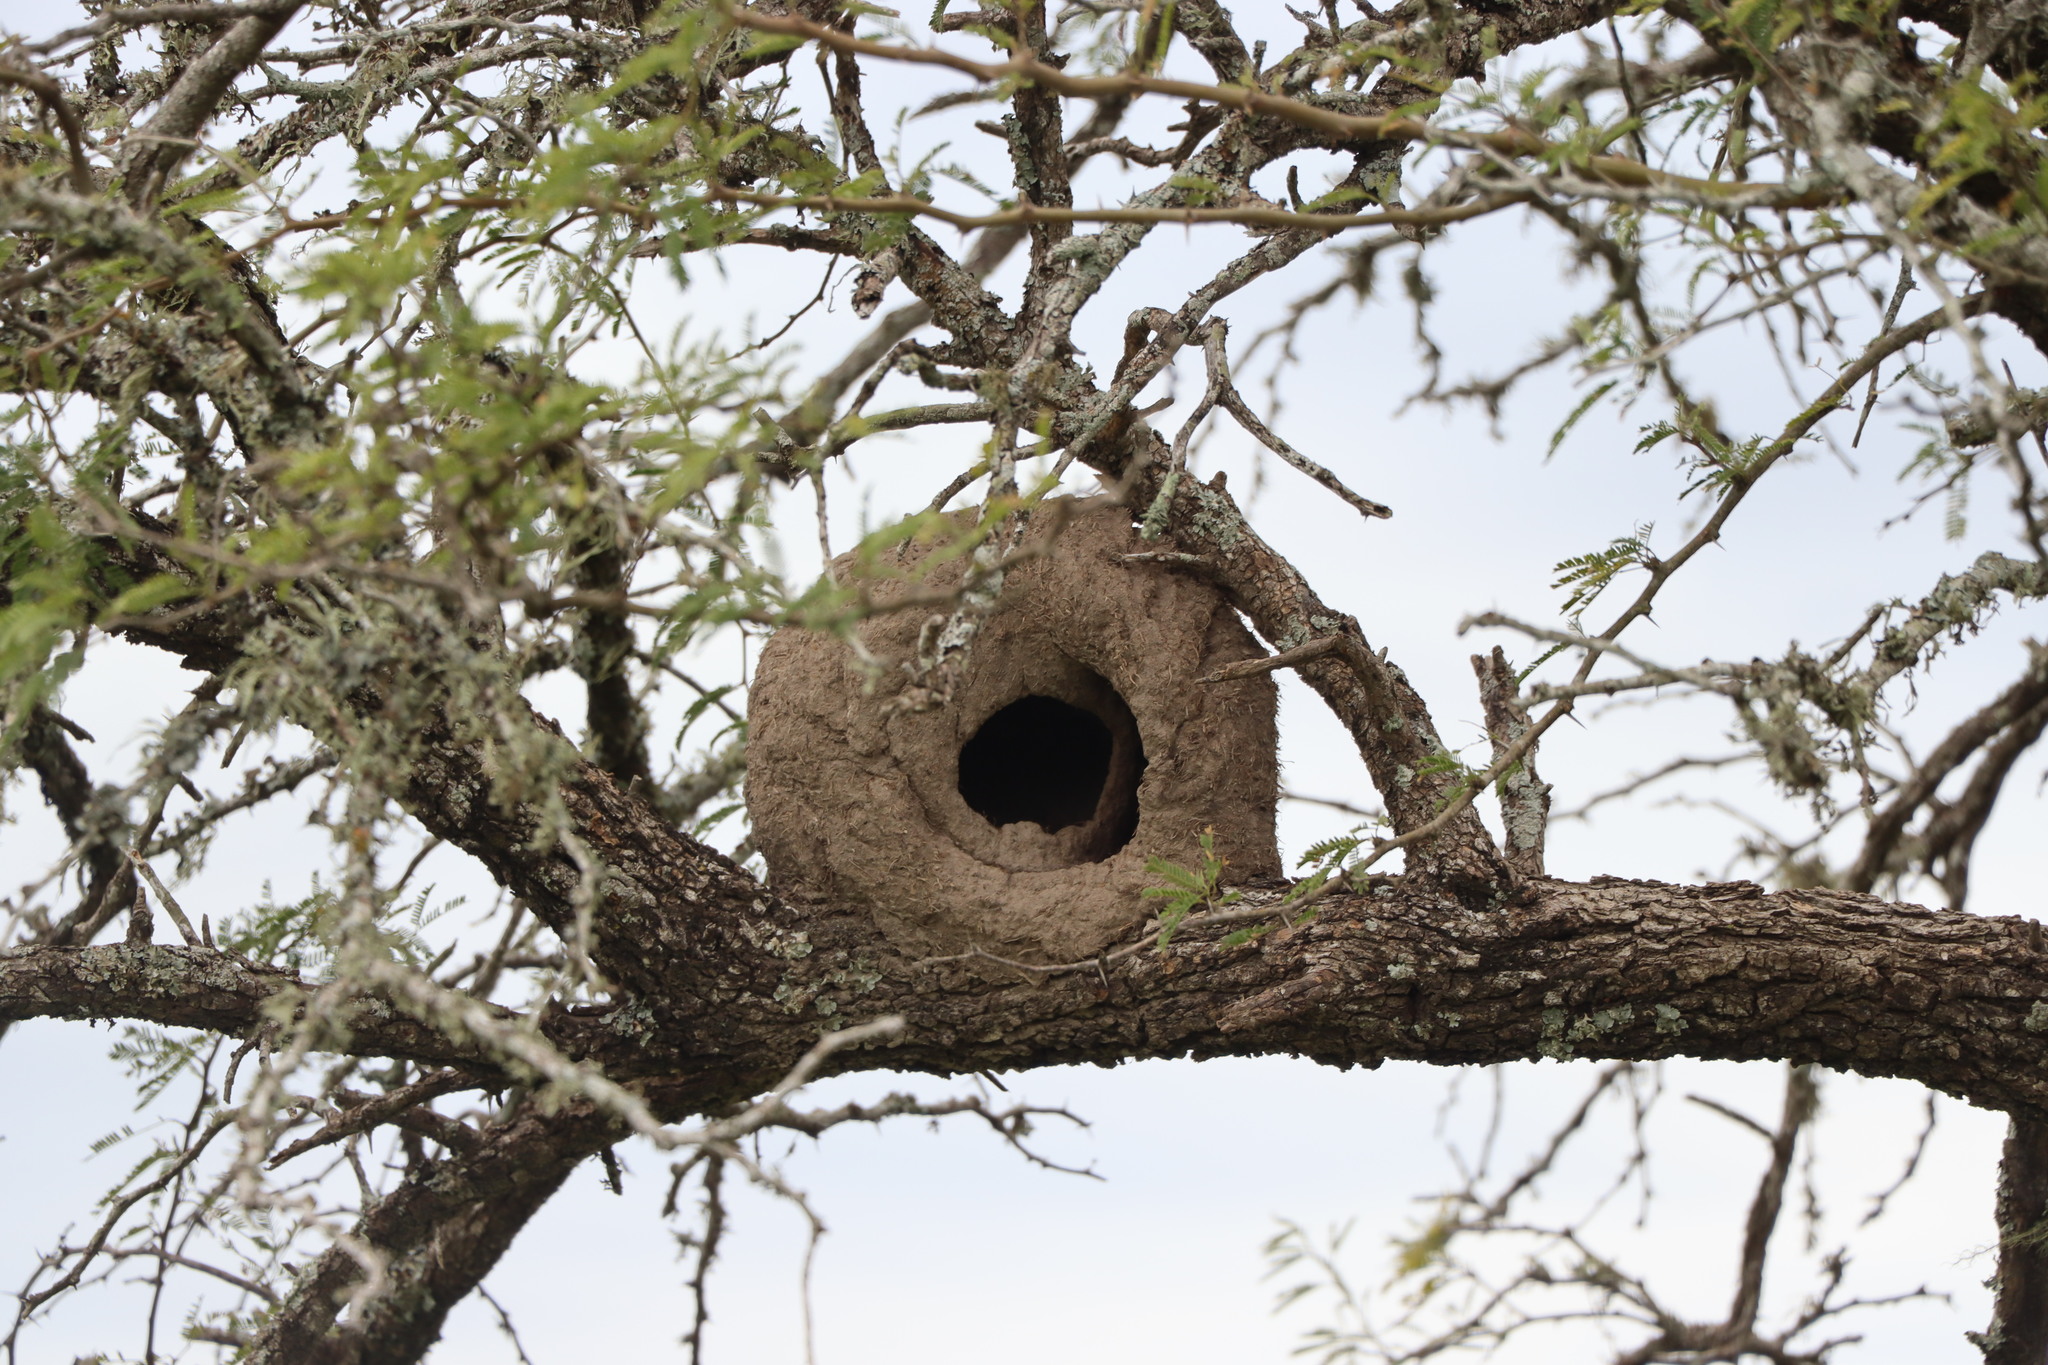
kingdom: Animalia
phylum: Chordata
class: Aves
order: Passeriformes
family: Furnariidae
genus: Furnarius
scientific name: Furnarius rufus
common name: Rufous hornero
